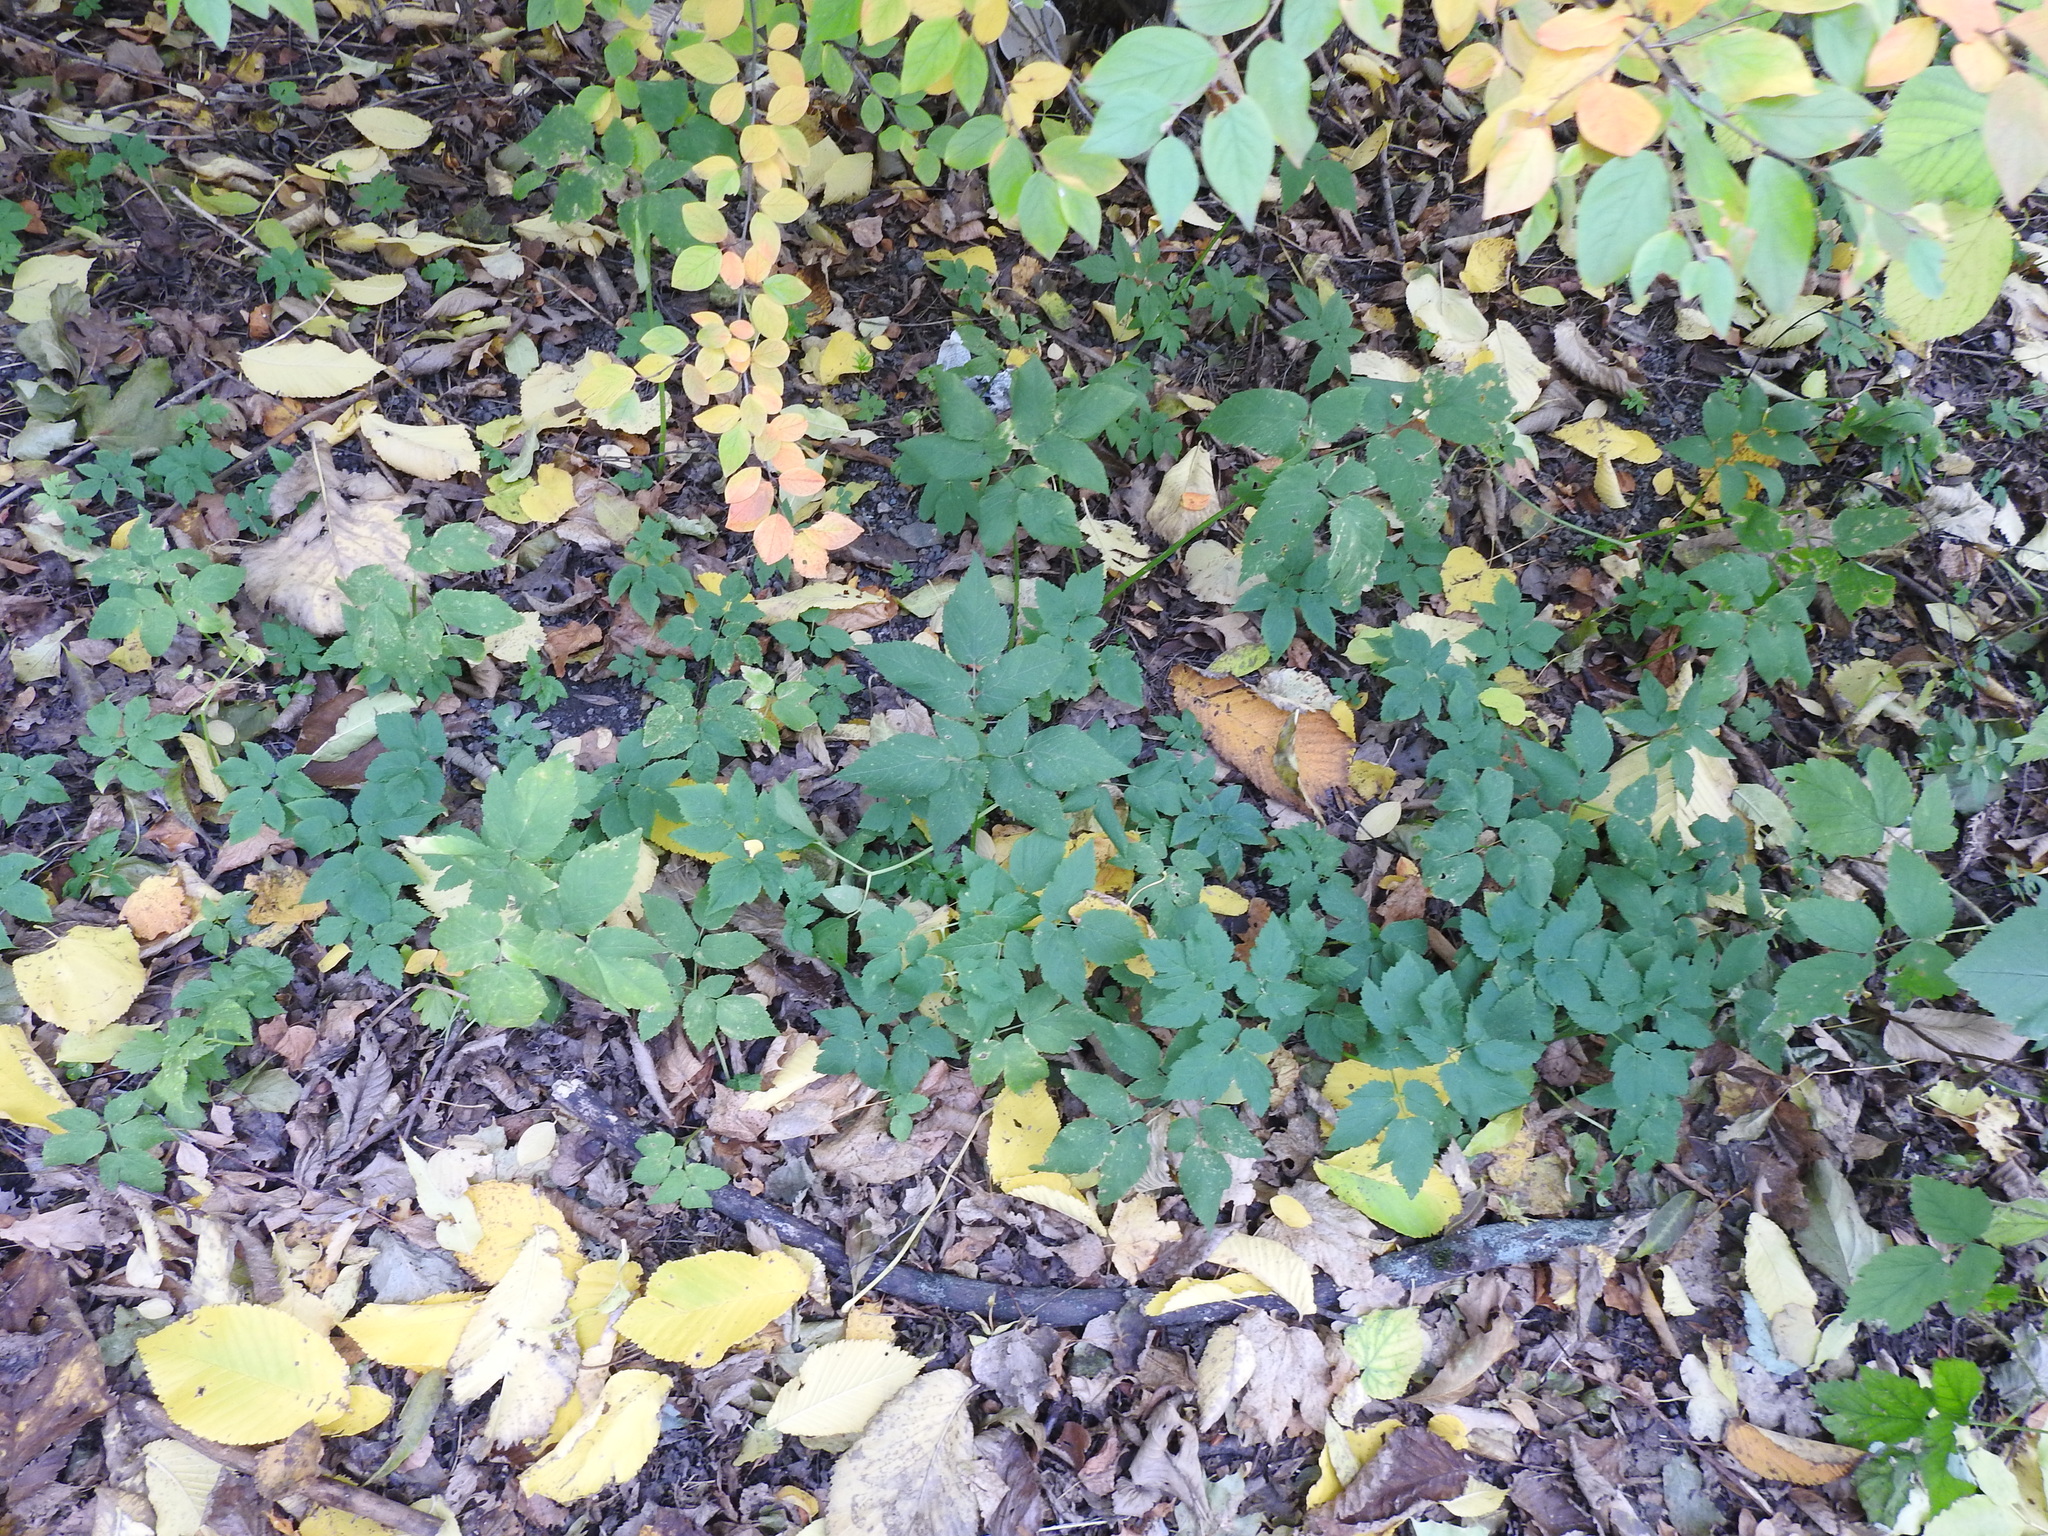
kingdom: Plantae
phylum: Tracheophyta
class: Magnoliopsida
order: Apiales
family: Apiaceae
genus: Aegopodium
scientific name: Aegopodium podagraria
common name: Ground-elder
